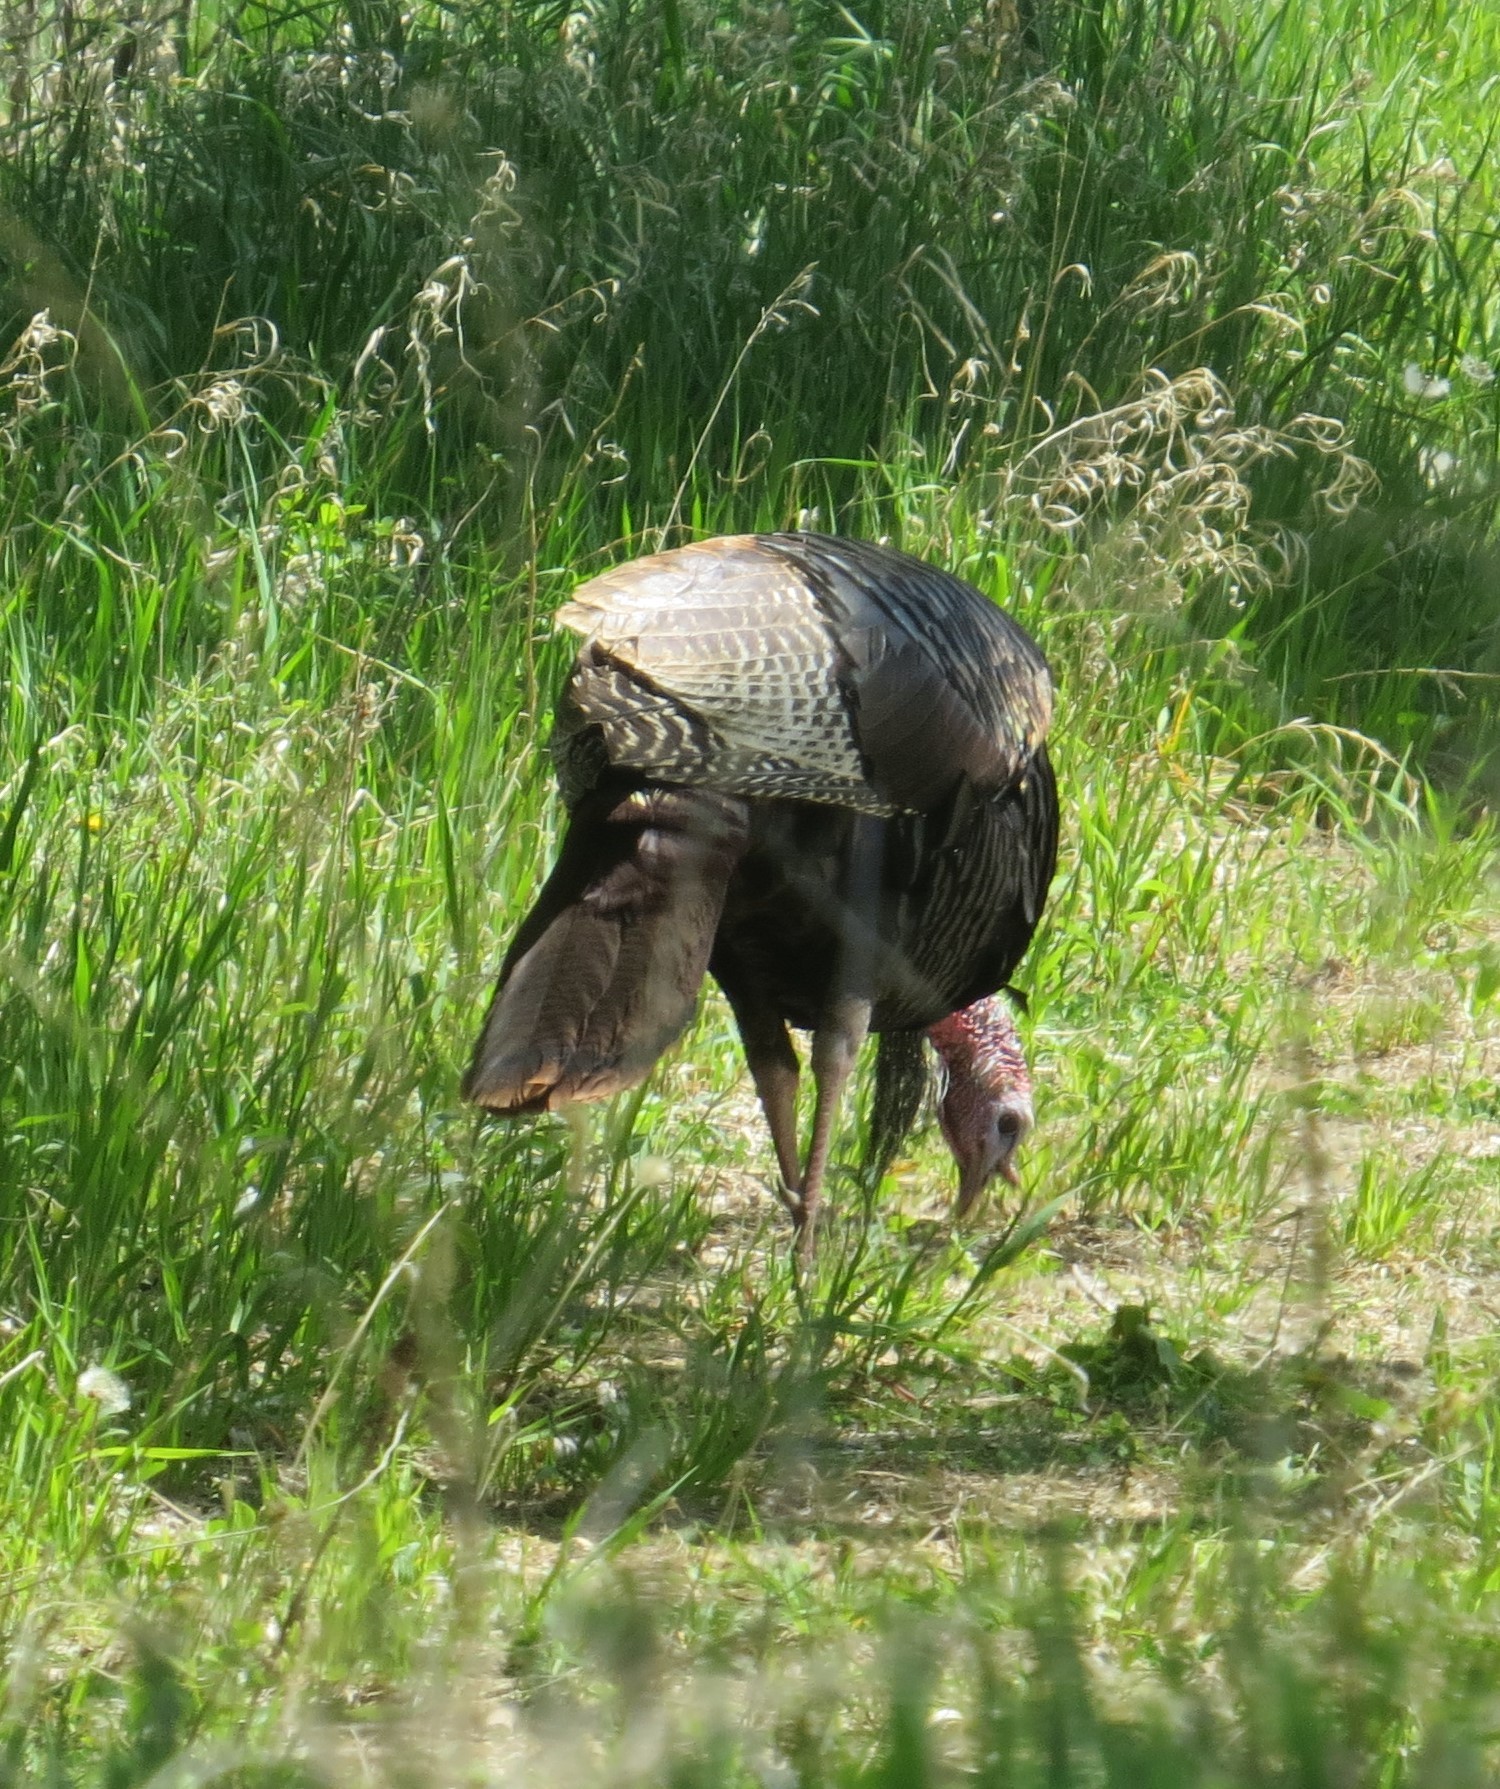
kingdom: Animalia
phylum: Chordata
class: Aves
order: Galliformes
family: Phasianidae
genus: Meleagris
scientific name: Meleagris gallopavo
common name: Wild turkey
